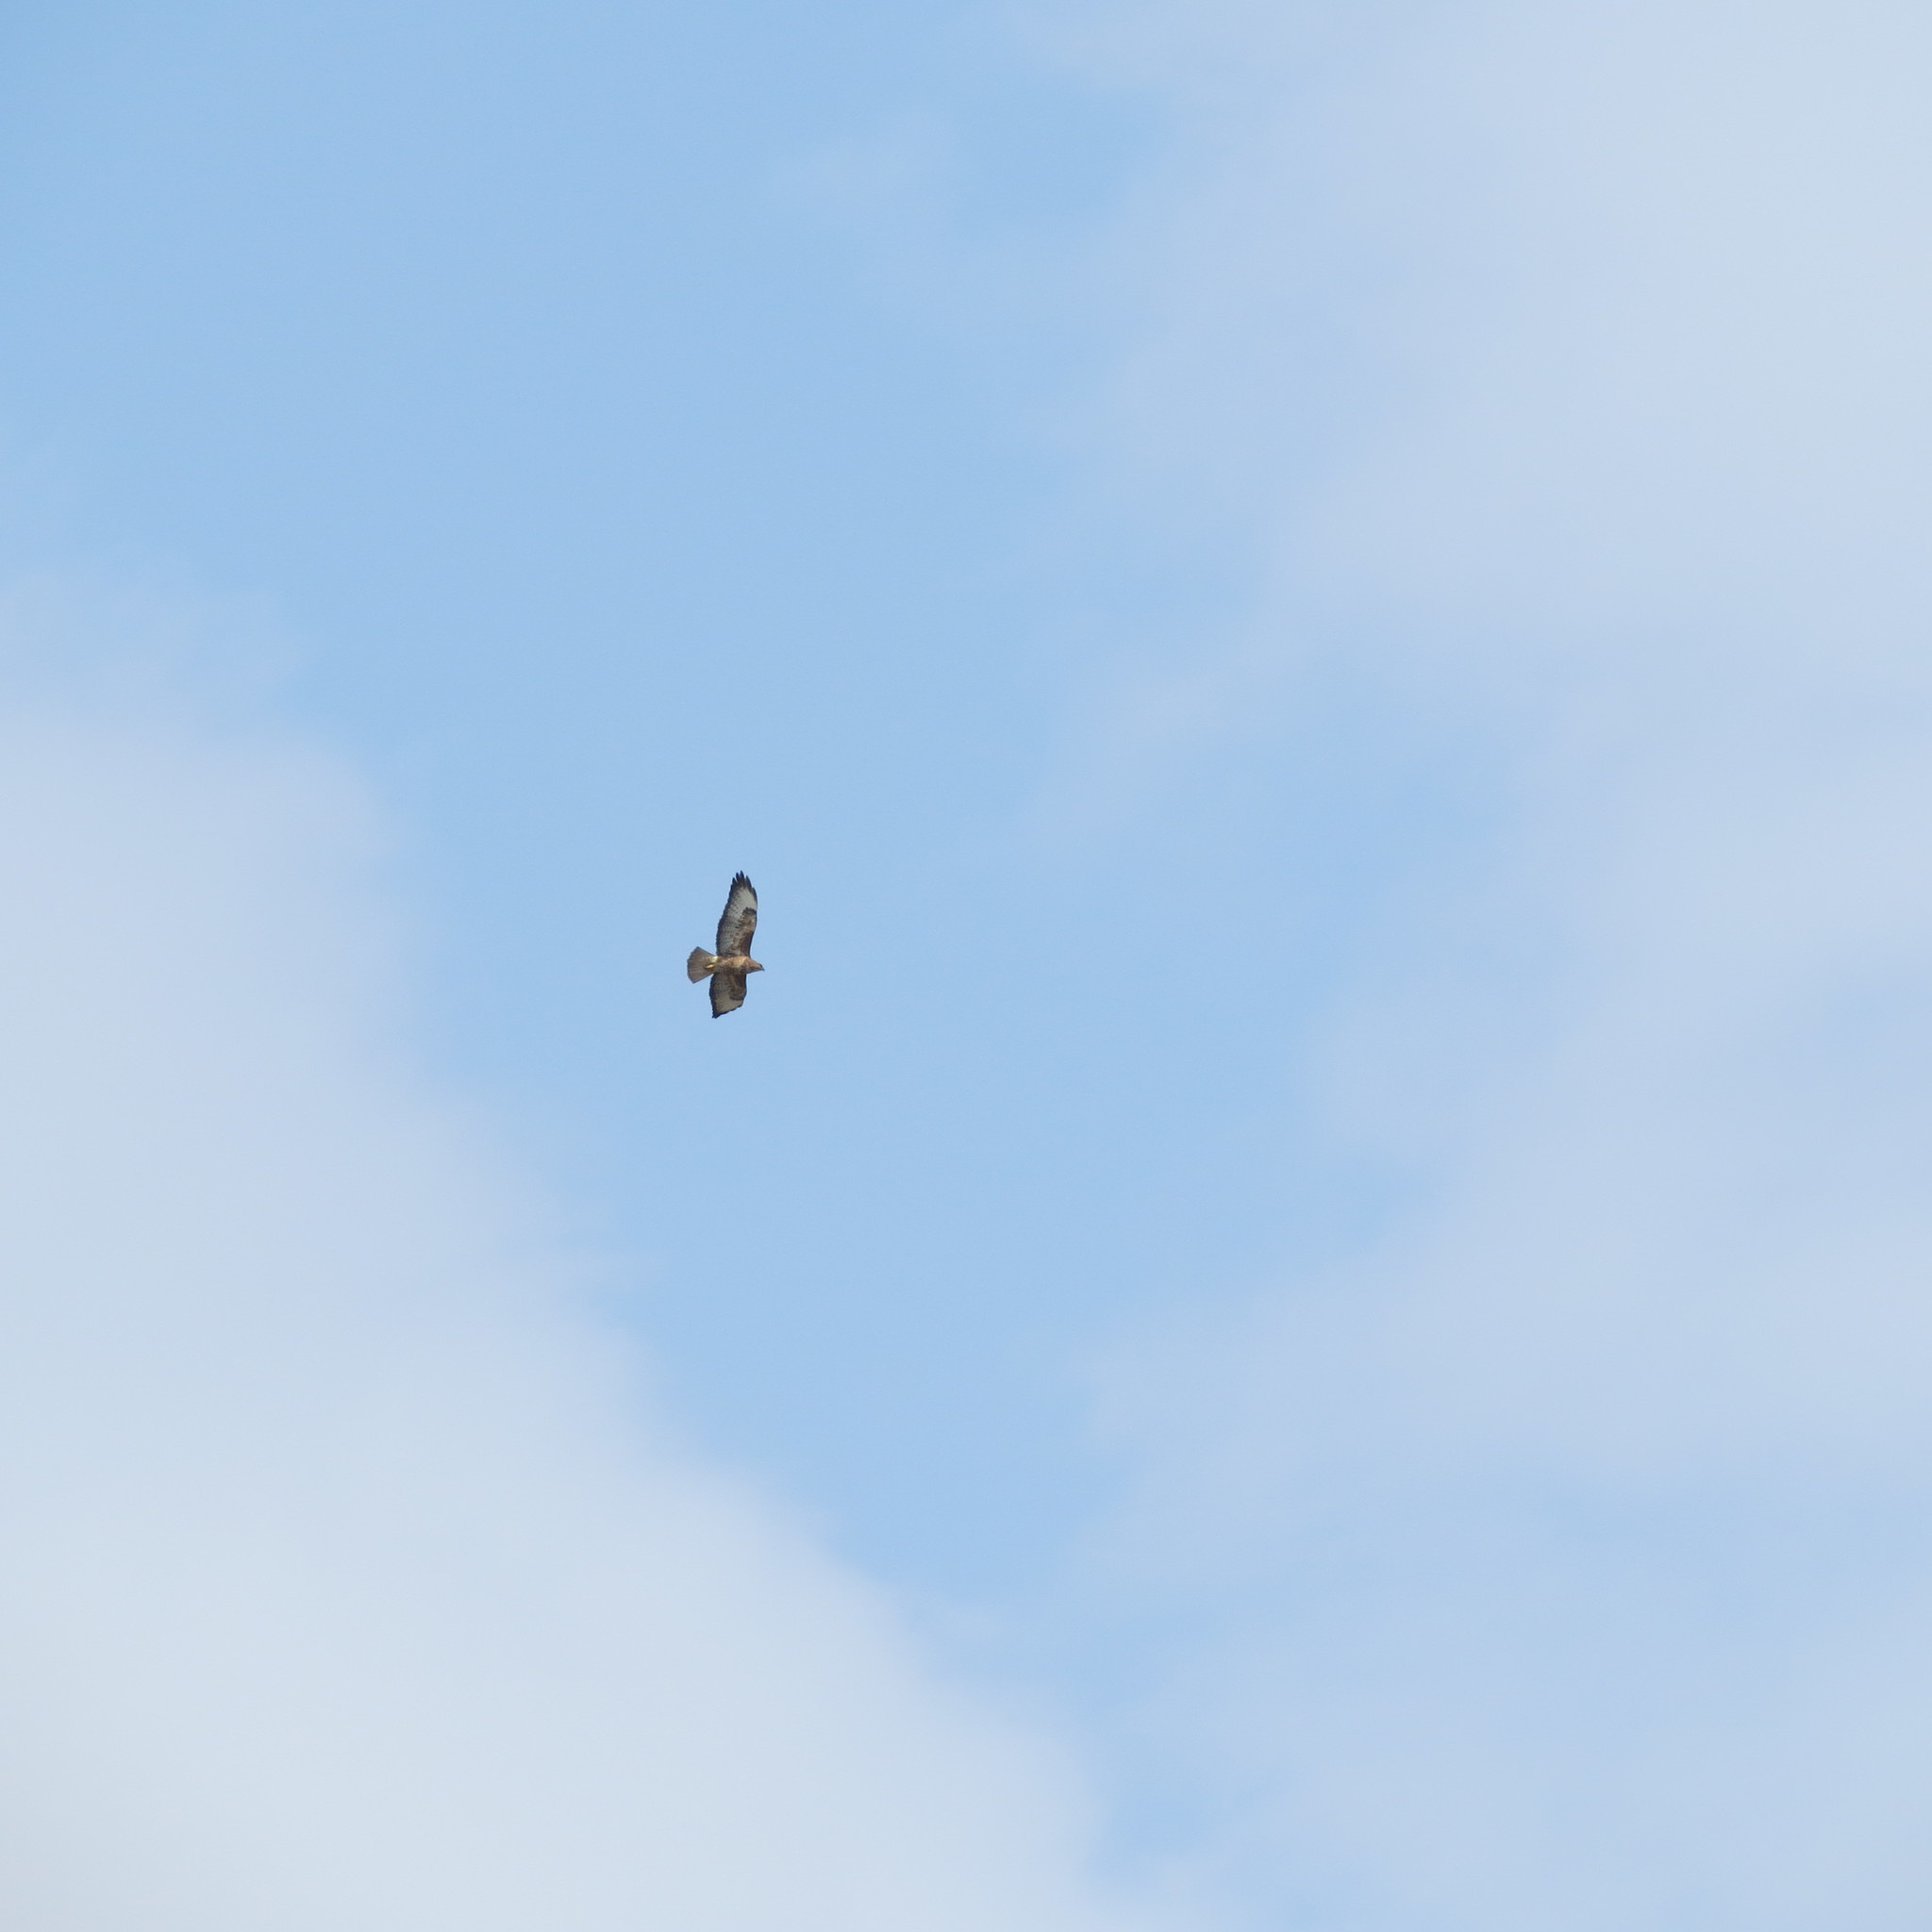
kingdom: Animalia
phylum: Chordata
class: Aves
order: Accipitriformes
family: Accipitridae
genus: Buteo
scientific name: Buteo buteo
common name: Common buzzard
